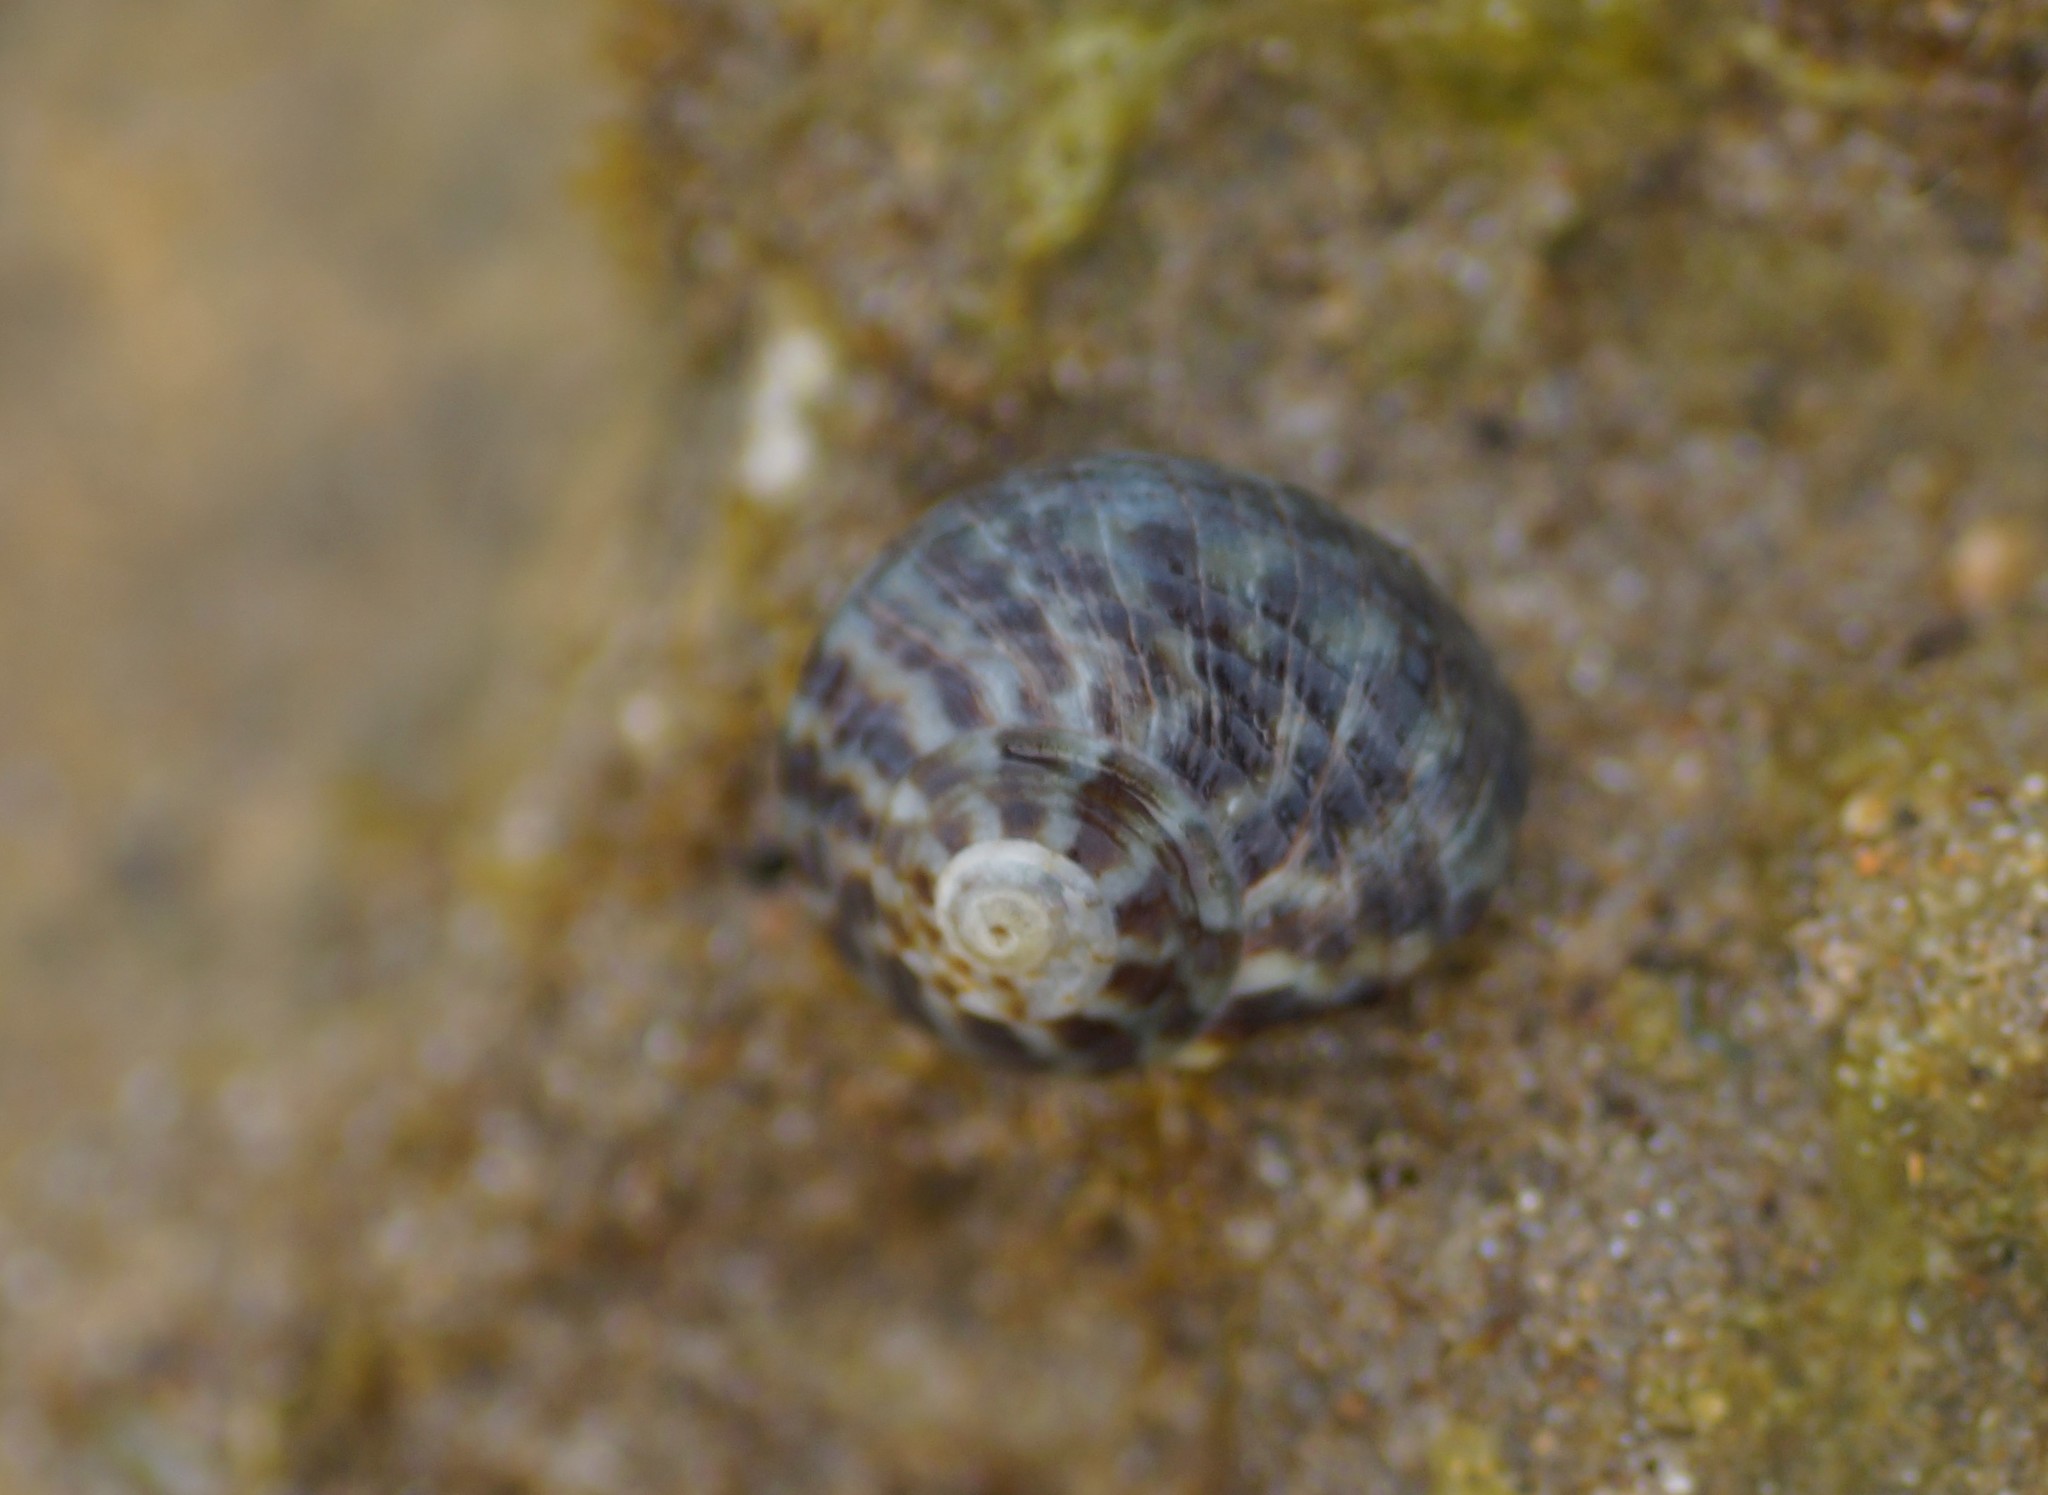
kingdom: Animalia
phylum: Mollusca
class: Gastropoda
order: Trochida
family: Turbinidae
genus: Lunella
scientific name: Lunella undulata
